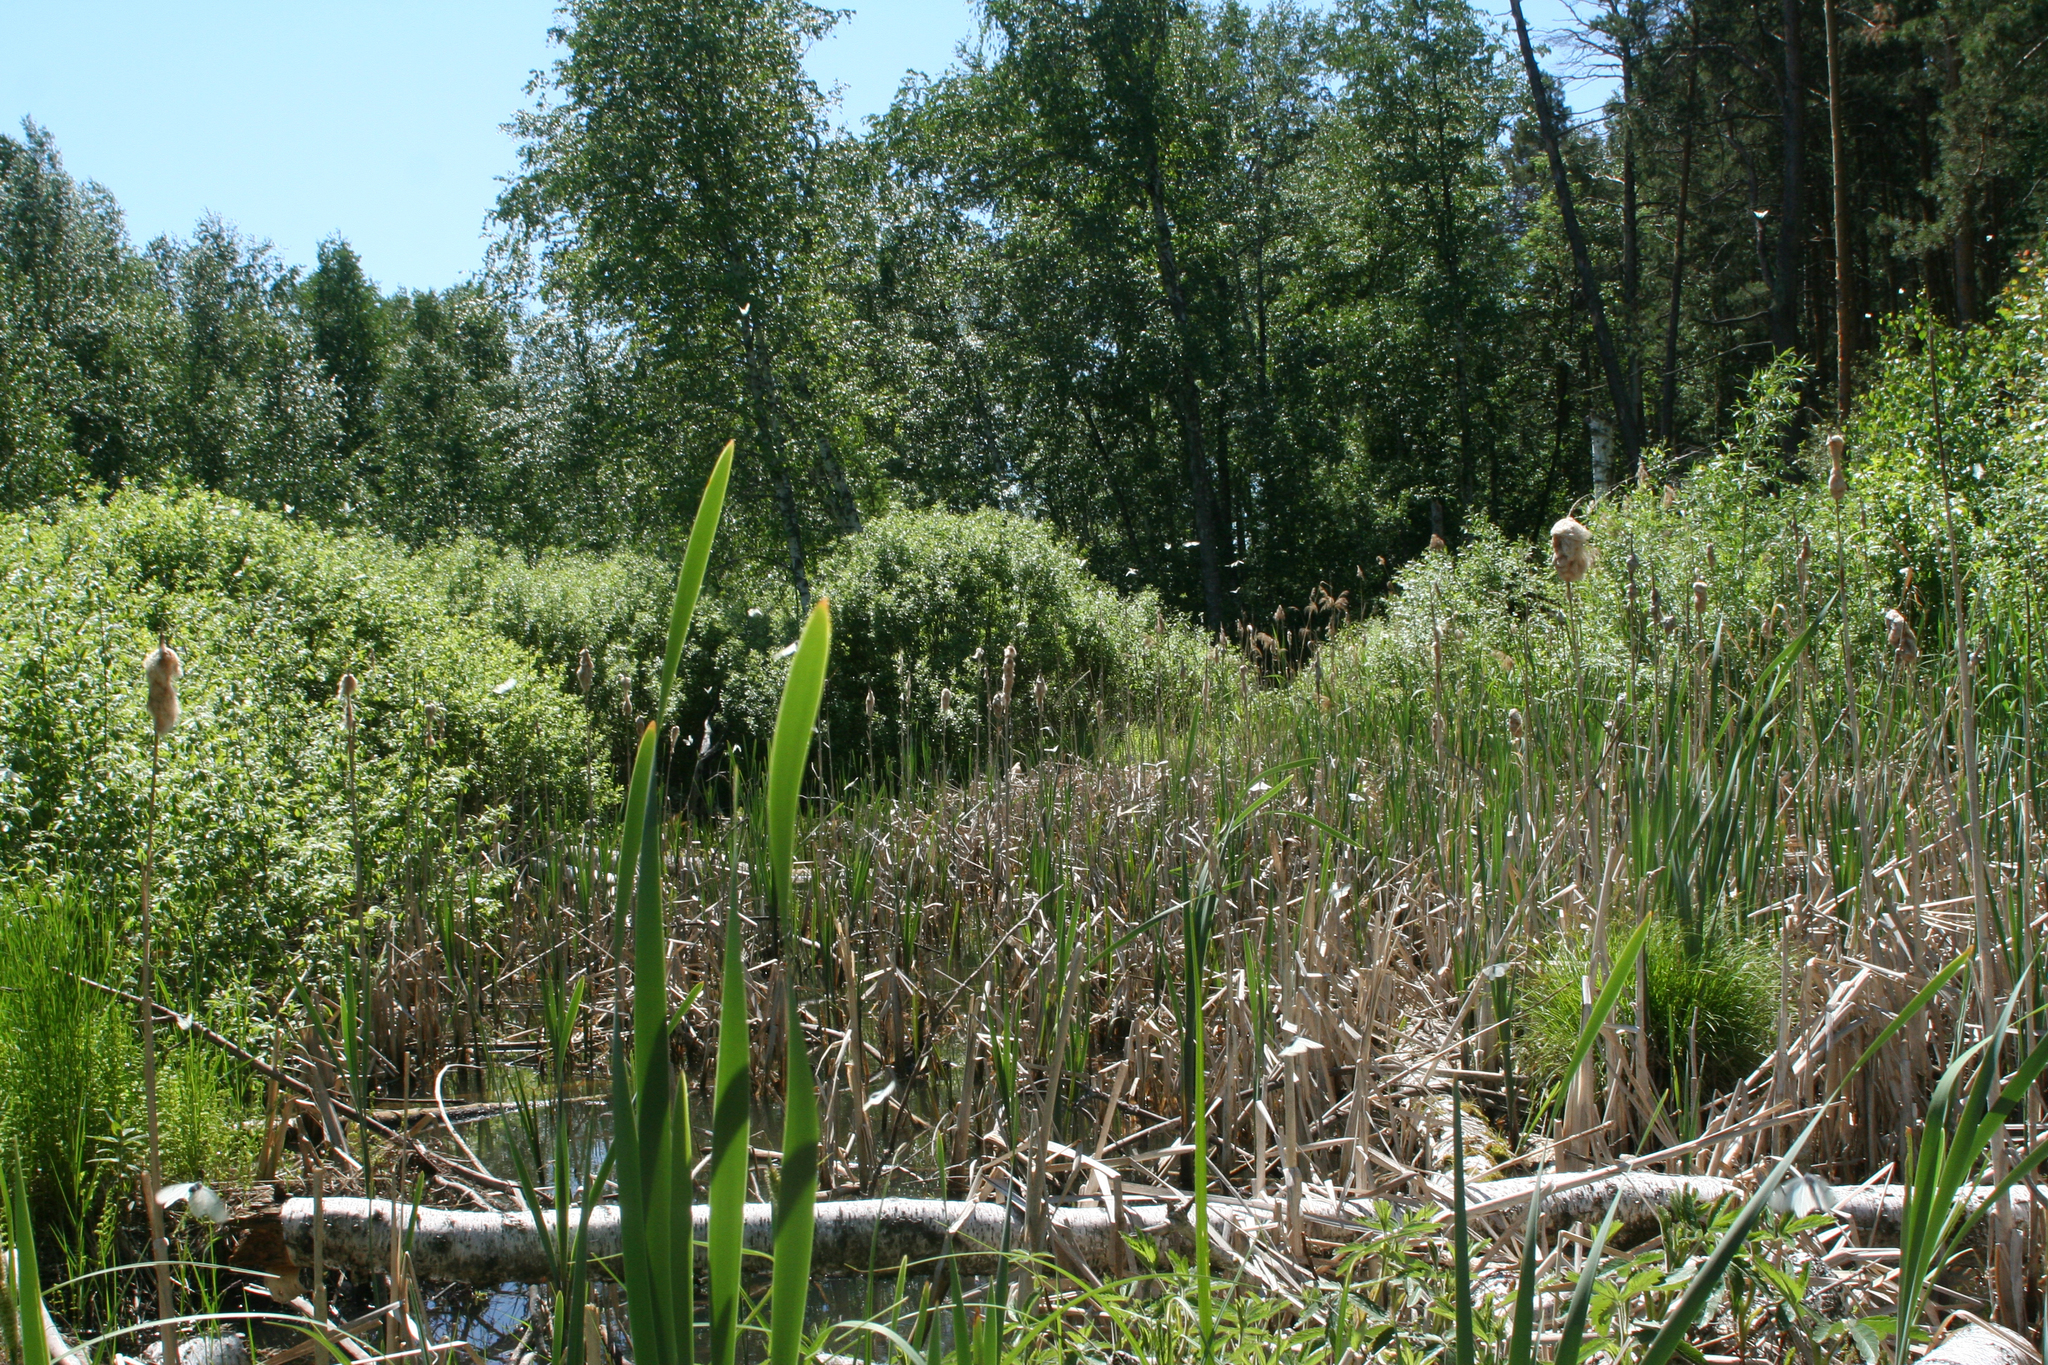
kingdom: Plantae
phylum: Tracheophyta
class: Liliopsida
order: Poales
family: Typhaceae
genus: Typha
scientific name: Typha latifolia
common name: Broadleaf cattail
